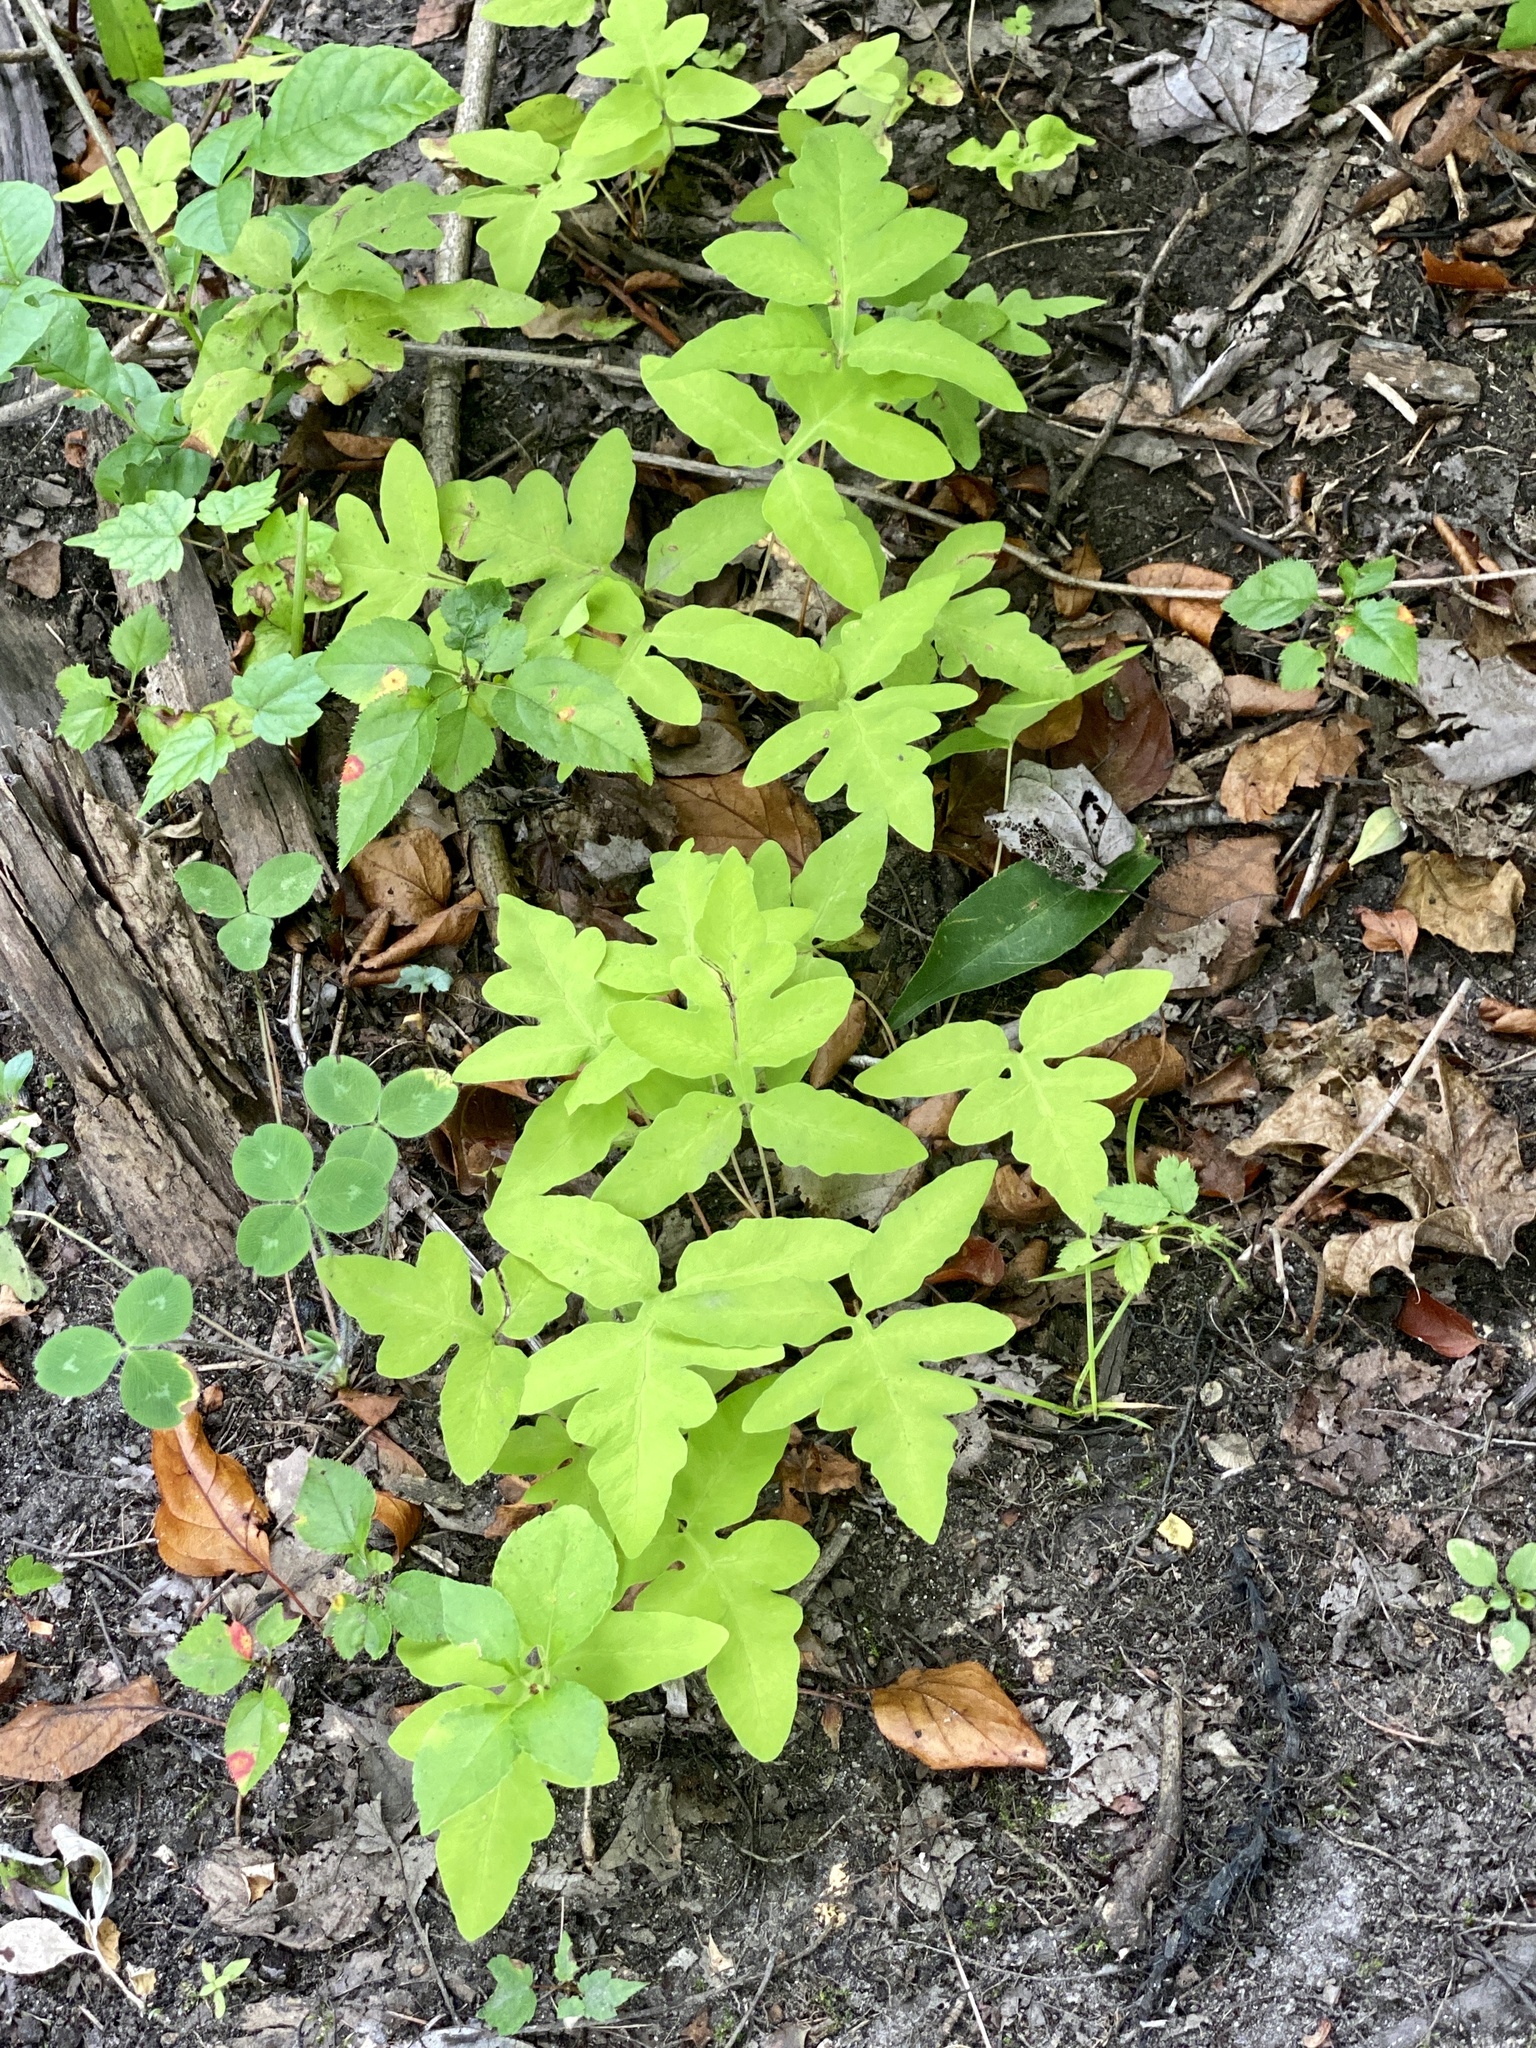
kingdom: Plantae
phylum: Tracheophyta
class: Polypodiopsida
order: Polypodiales
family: Onocleaceae
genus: Onoclea
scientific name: Onoclea sensibilis
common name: Sensitive fern
